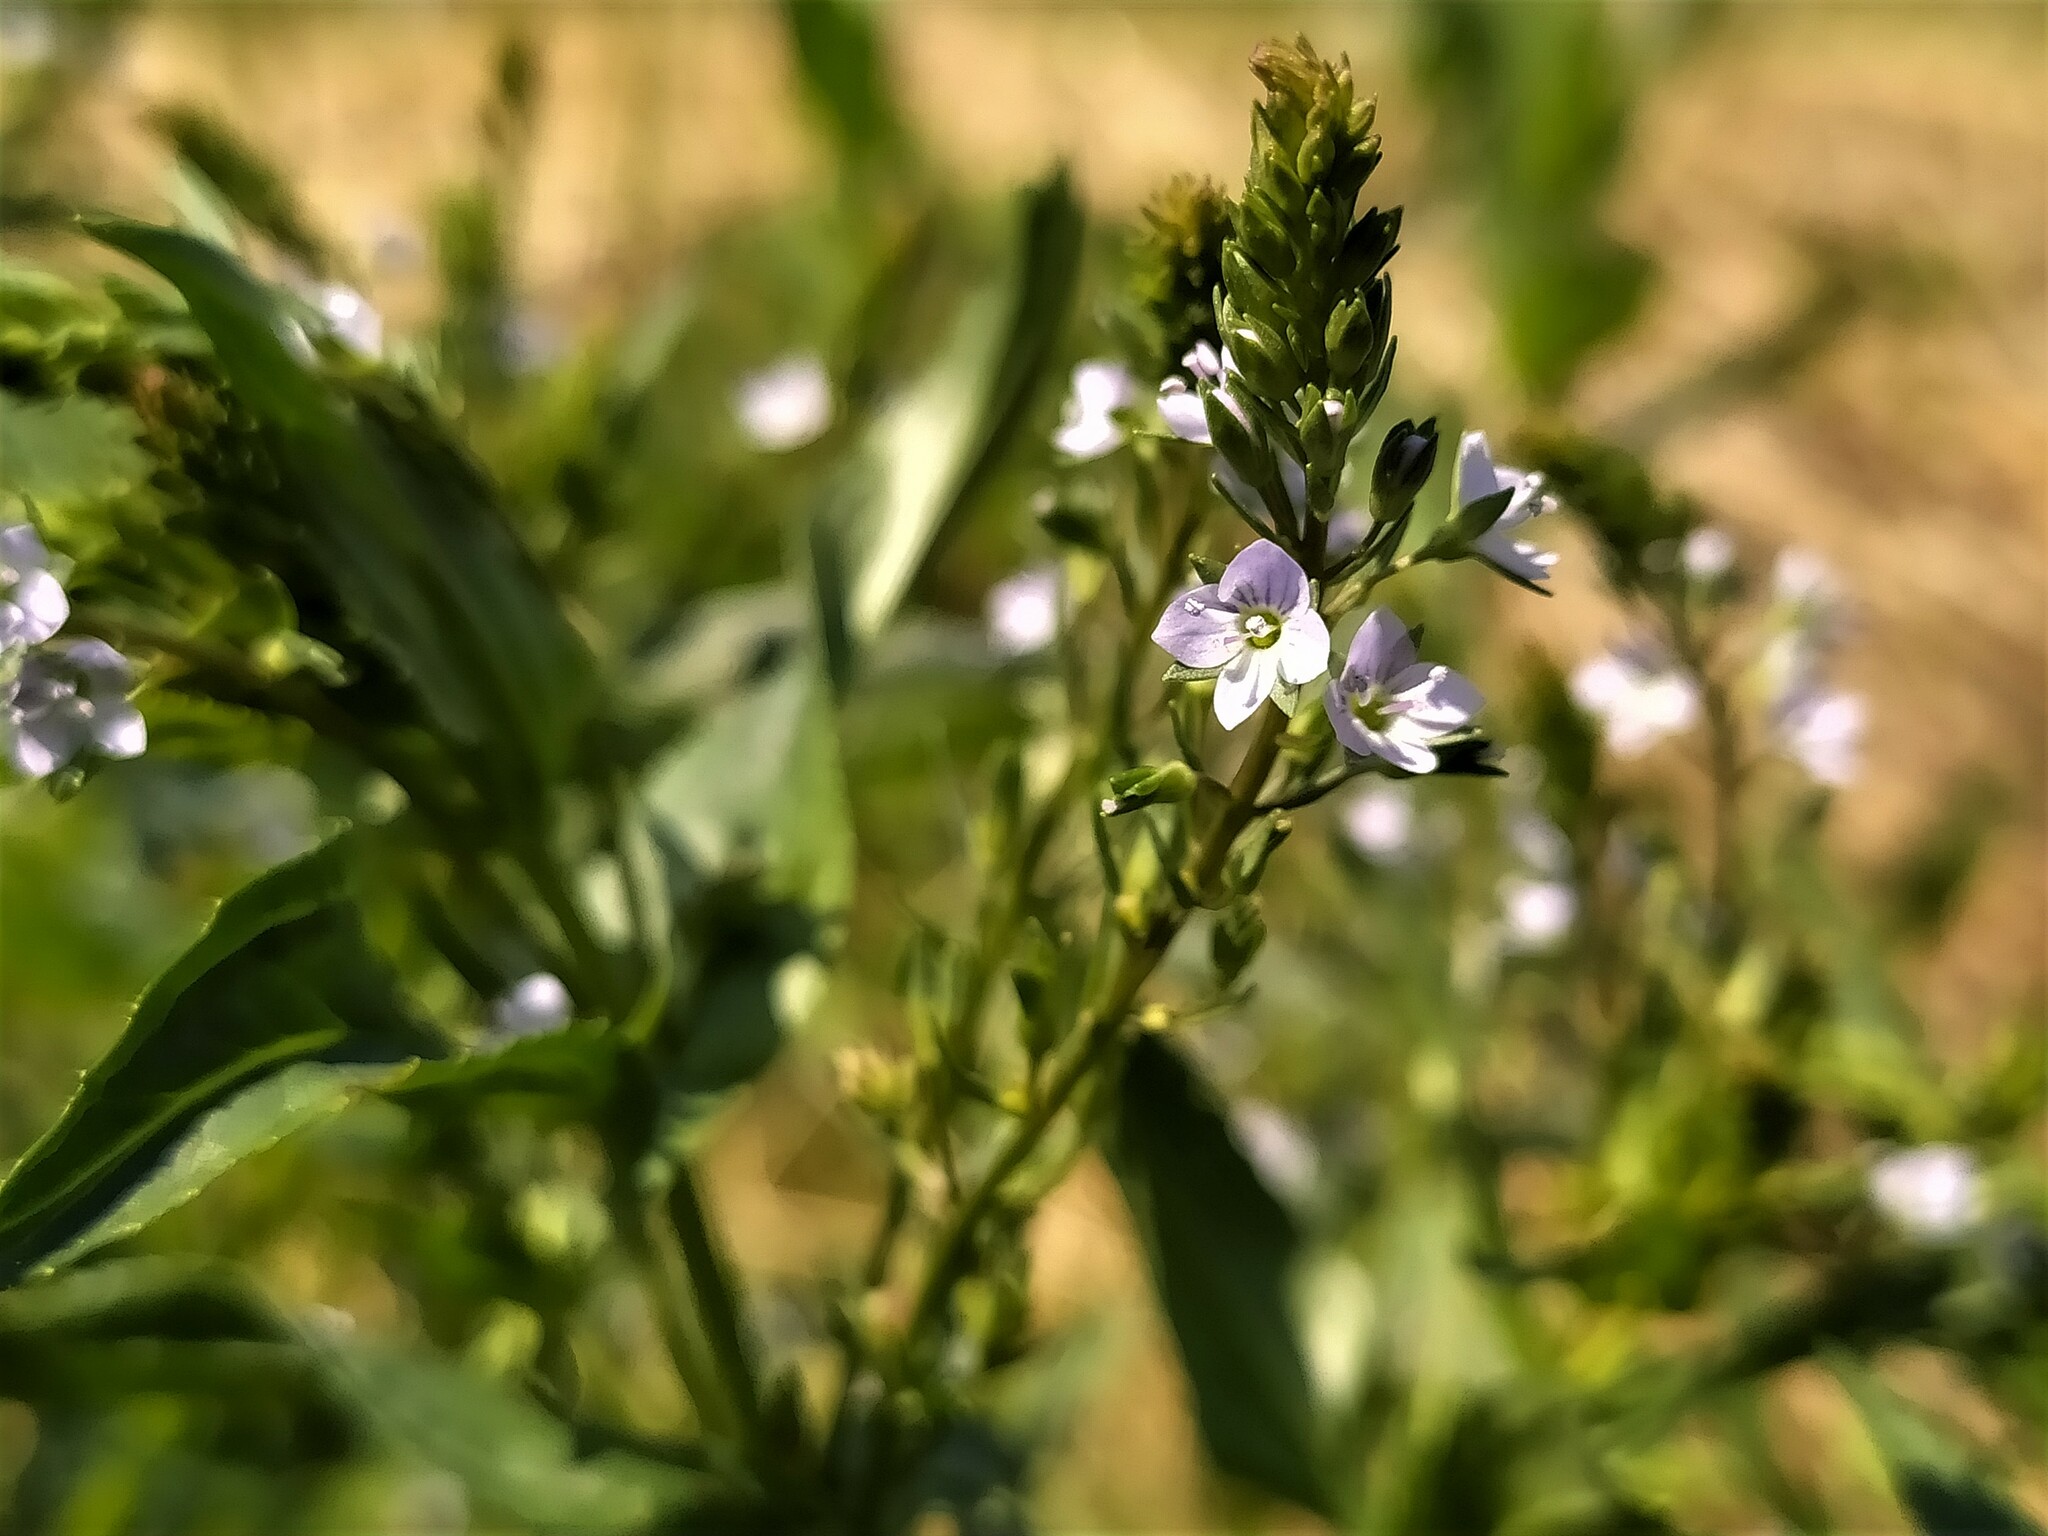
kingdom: Plantae
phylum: Tracheophyta
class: Magnoliopsida
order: Lamiales
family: Plantaginaceae
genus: Veronica
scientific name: Veronica anagallis-aquatica
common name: Water speedwell
